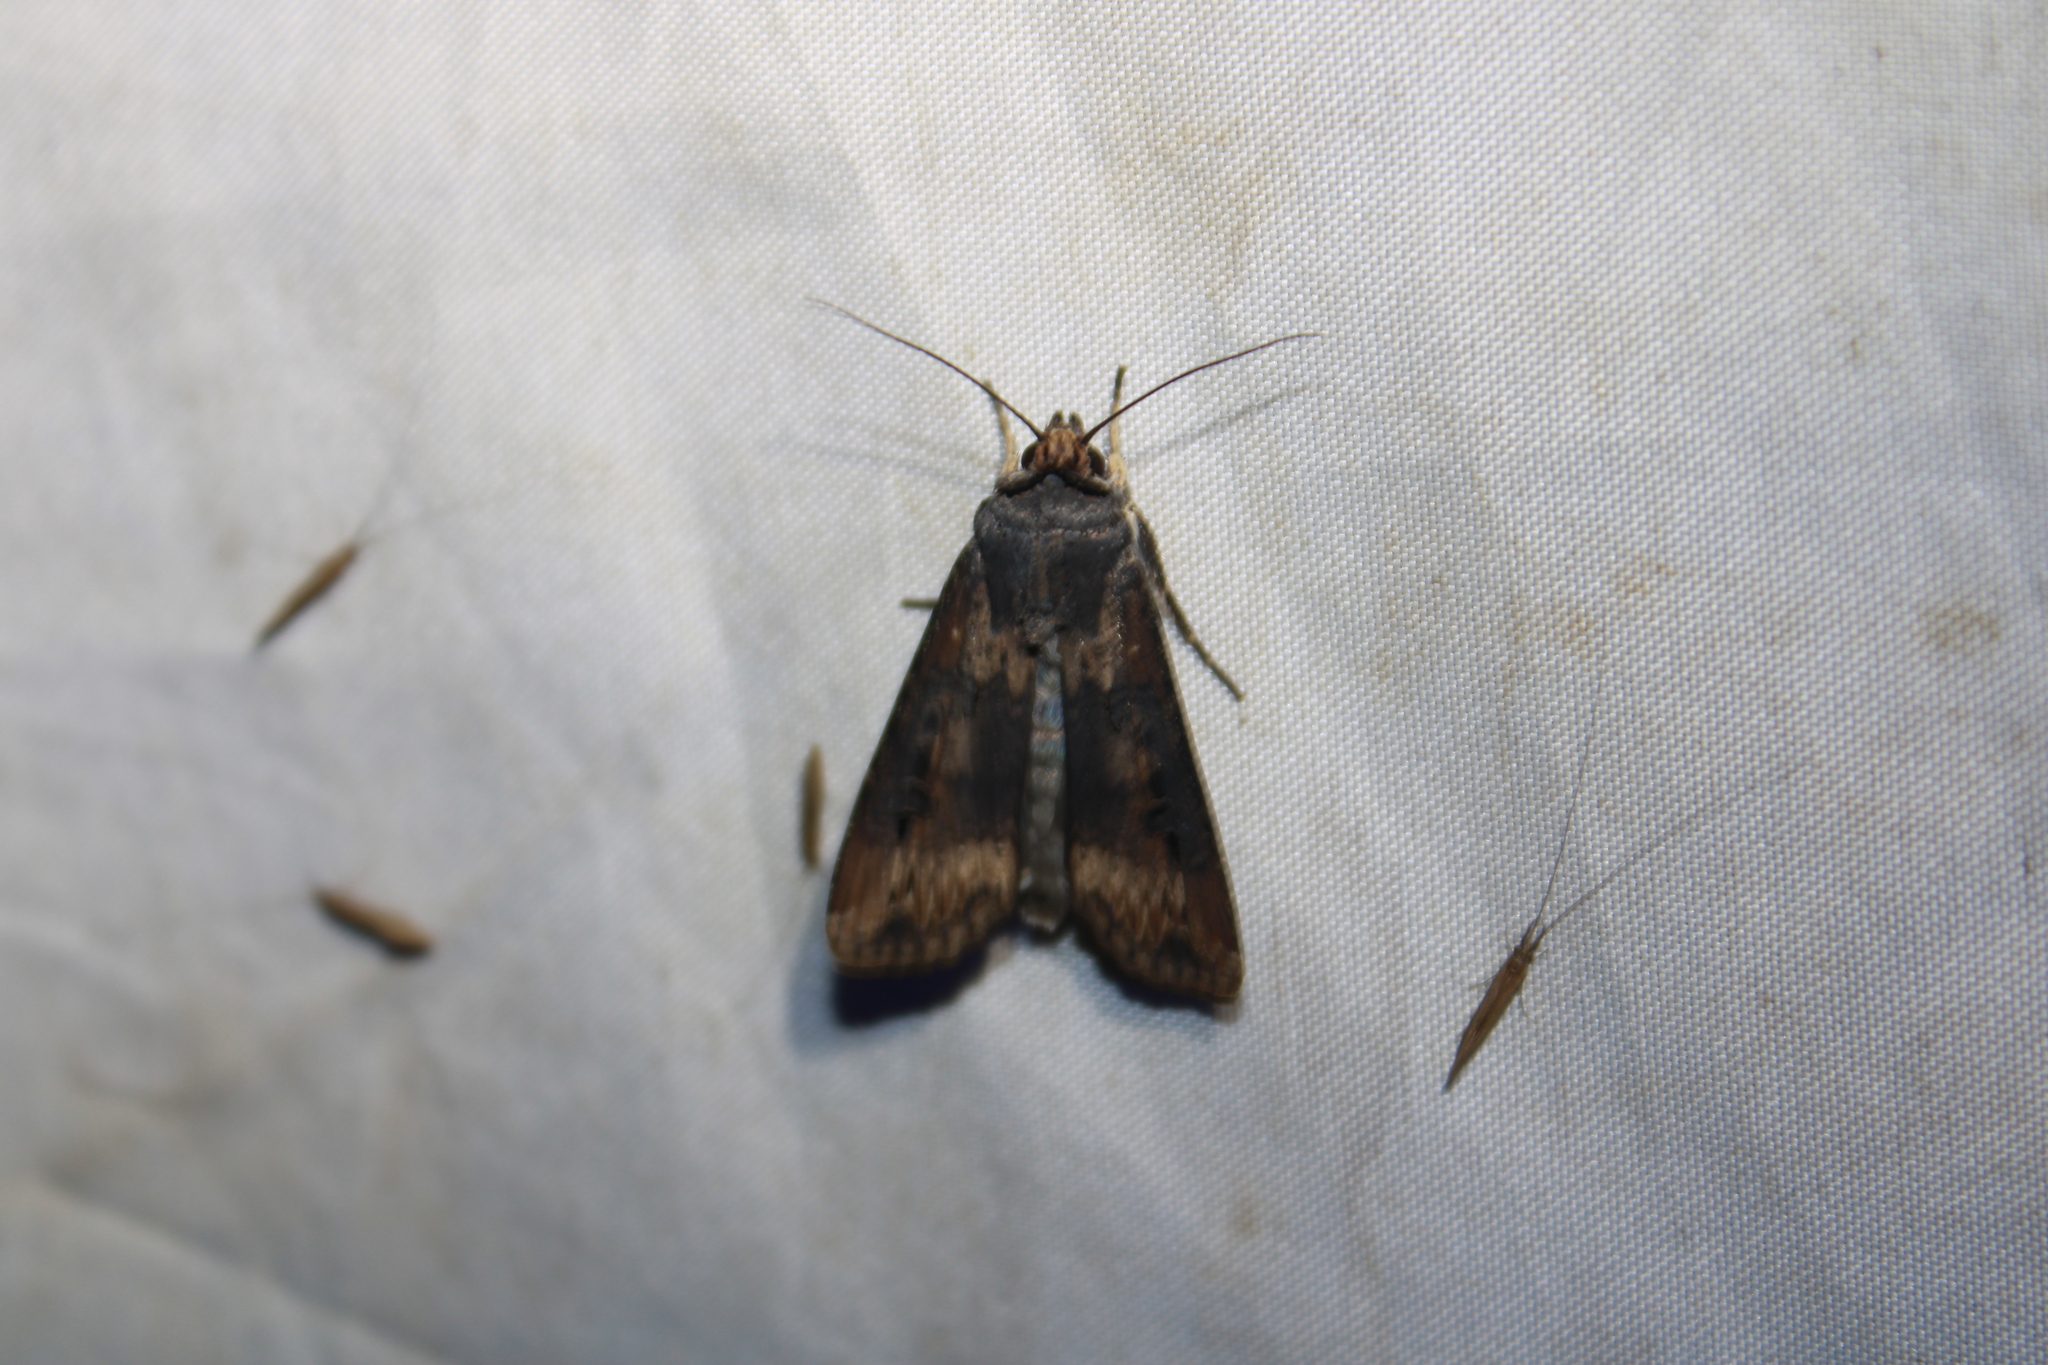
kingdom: Animalia
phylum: Arthropoda
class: Insecta
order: Lepidoptera
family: Noctuidae
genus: Agrotis
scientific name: Agrotis ipsilon
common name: Dark sword-grass
